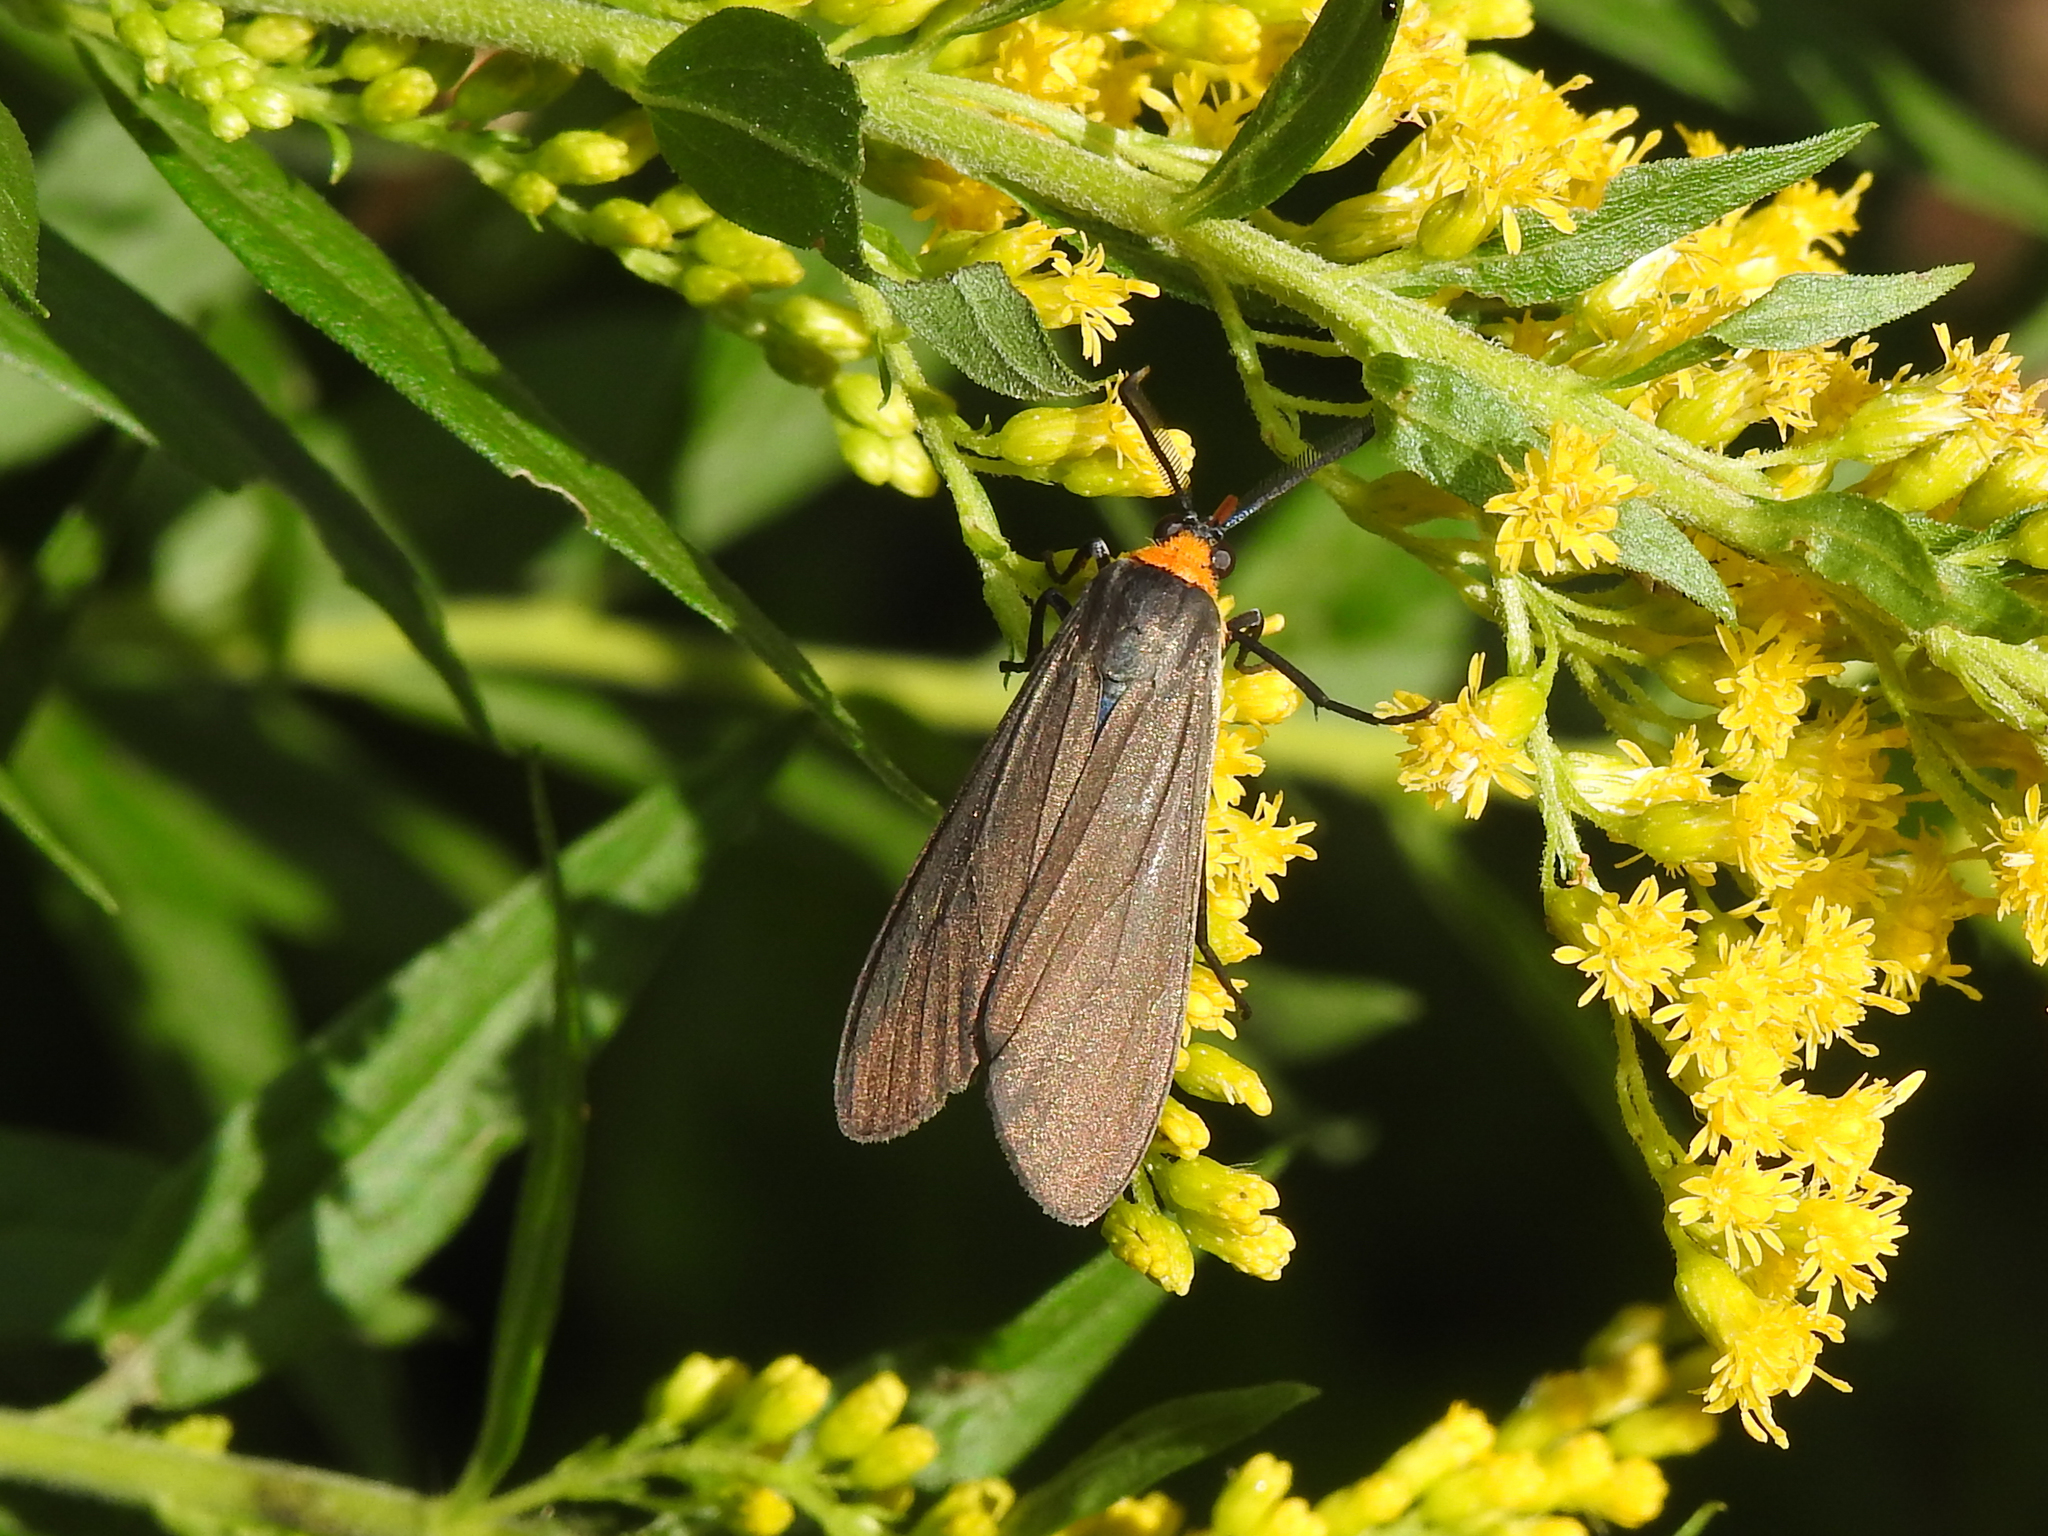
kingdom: Animalia
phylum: Arthropoda
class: Insecta
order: Lepidoptera
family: Erebidae
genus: Cisseps
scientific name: Cisseps fulvicollis
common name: Yellow-collared scape moth
